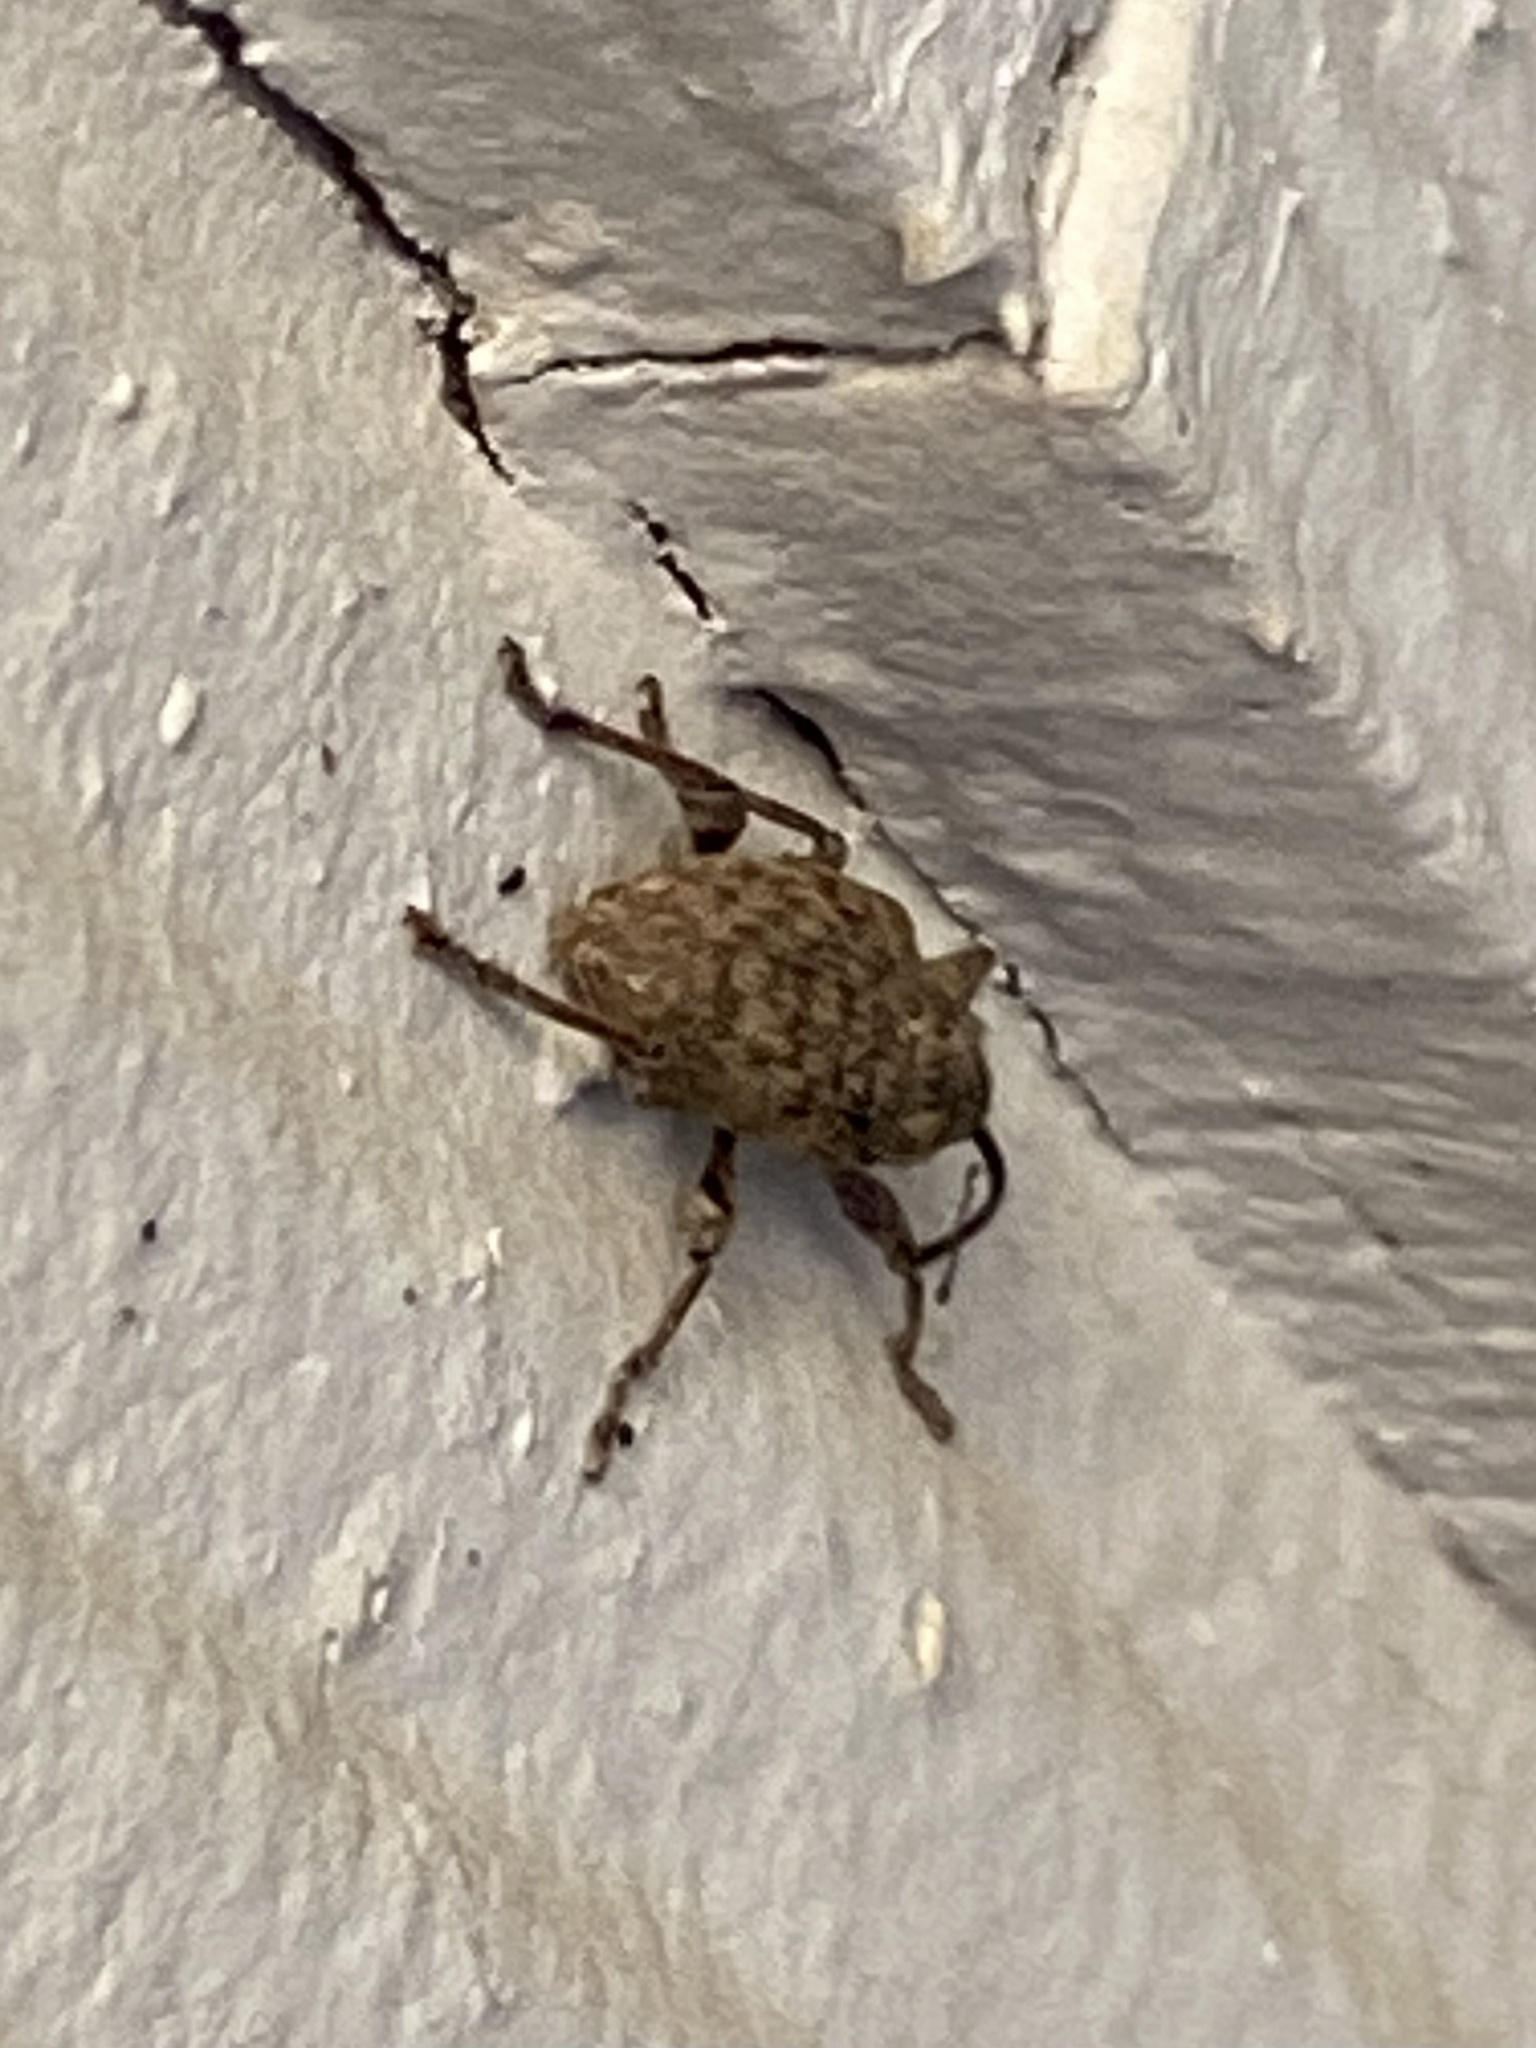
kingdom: Animalia
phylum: Arthropoda
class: Insecta
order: Coleoptera
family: Curculionidae
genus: Curculio
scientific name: Curculio
